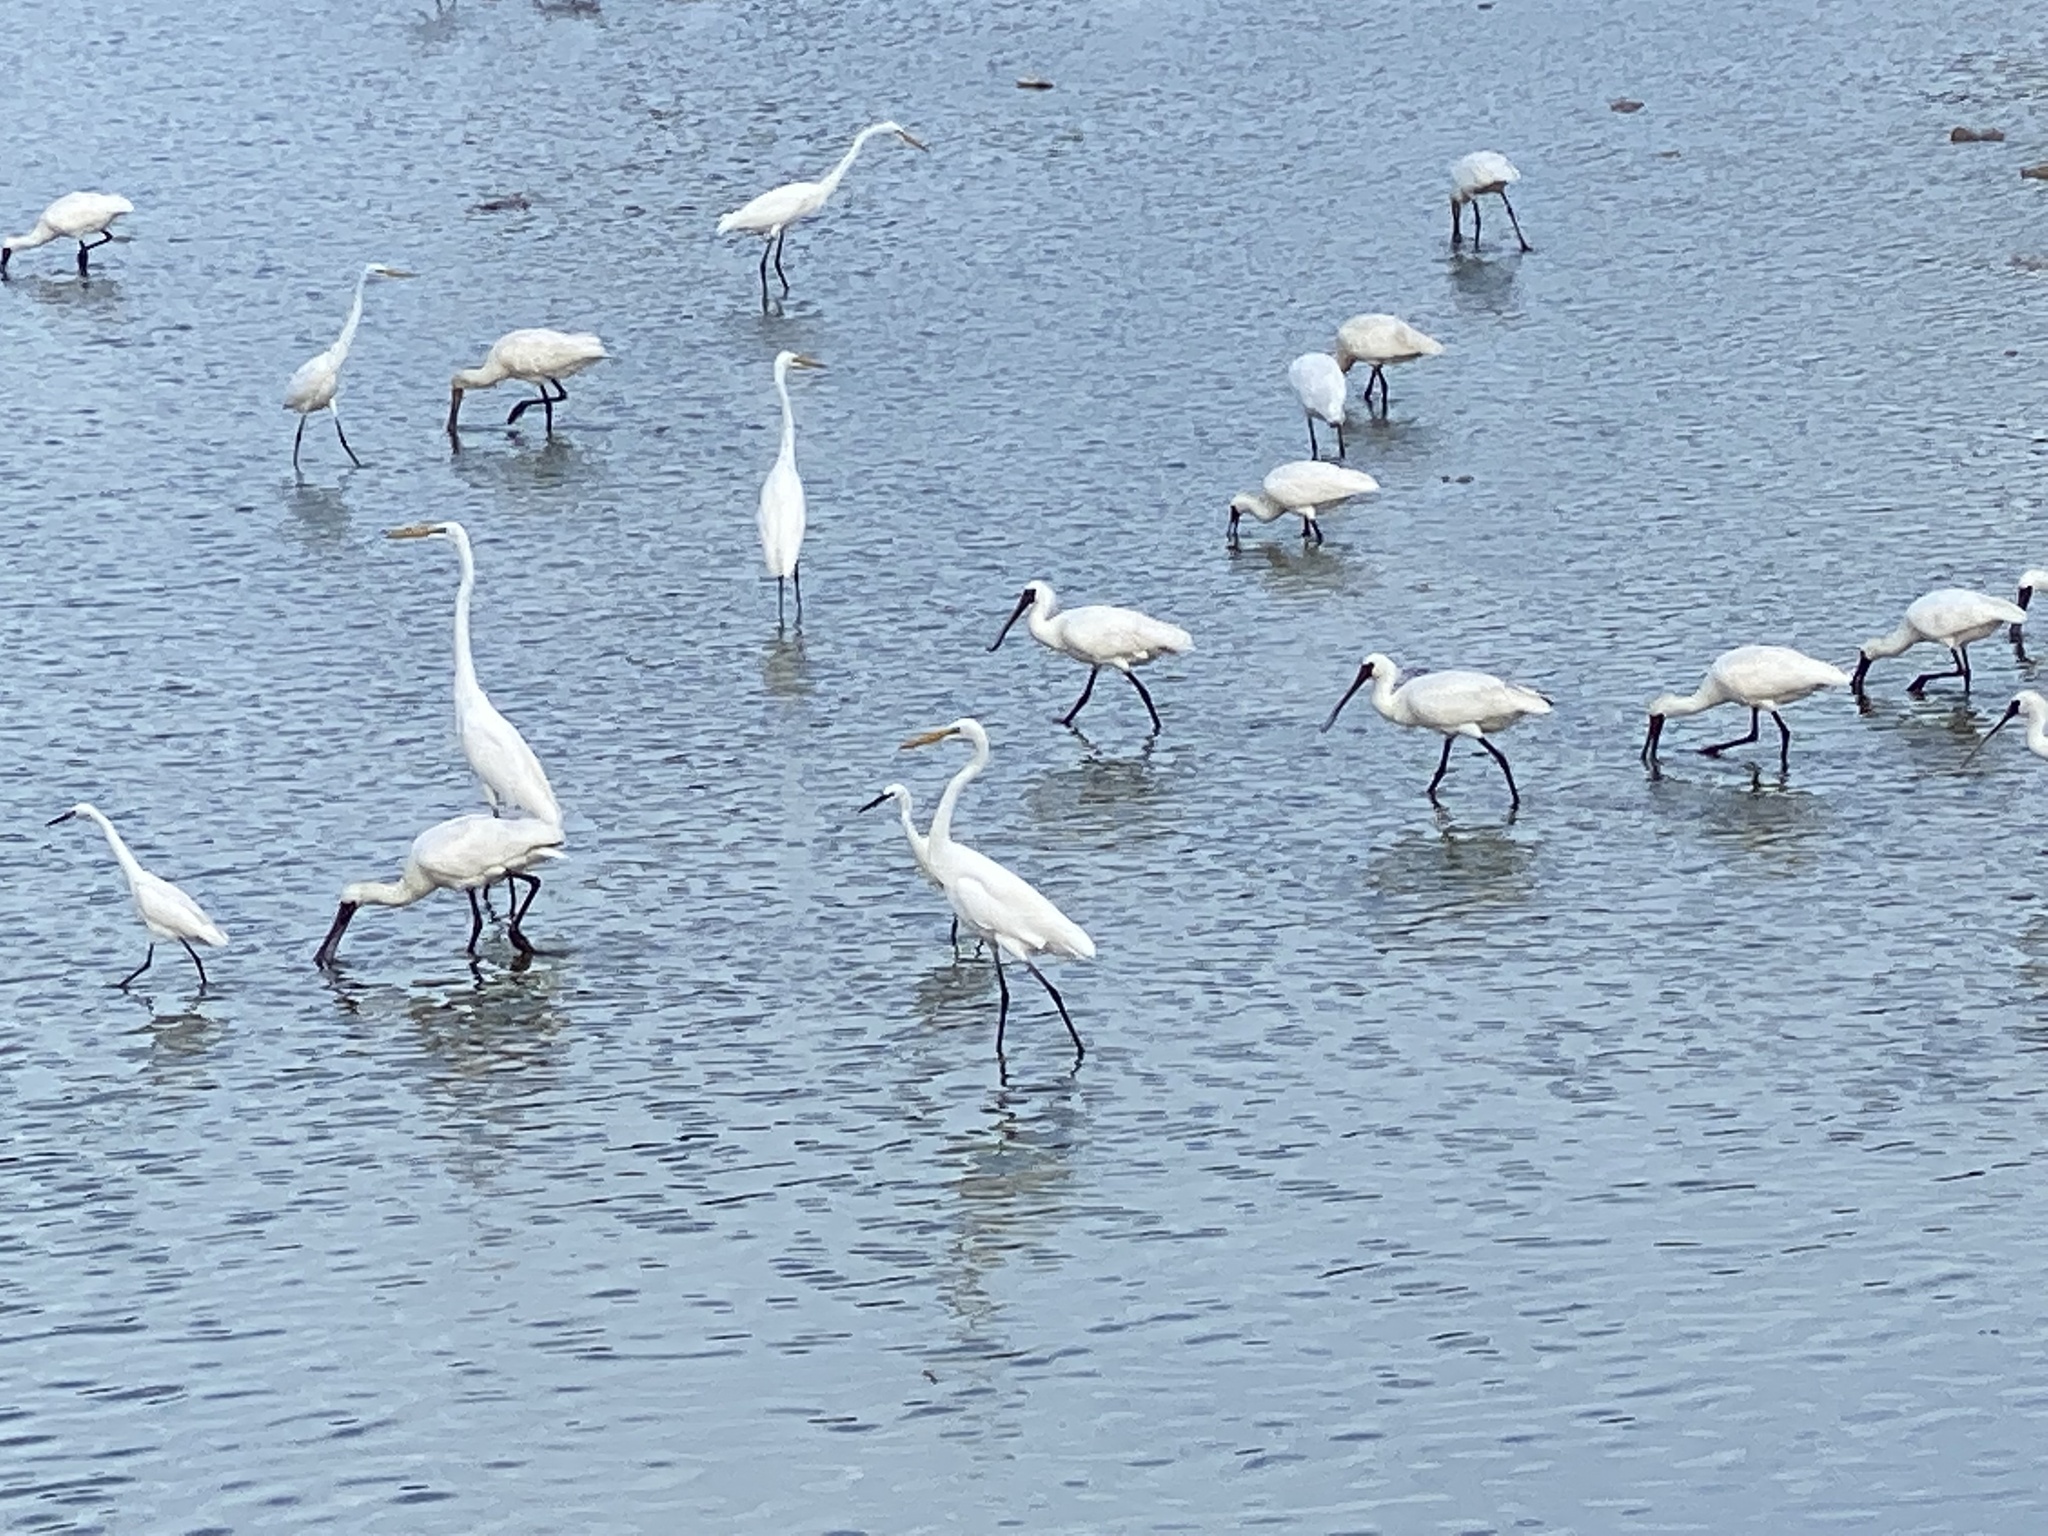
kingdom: Animalia
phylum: Chordata
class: Aves
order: Pelecaniformes
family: Threskiornithidae
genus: Platalea
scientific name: Platalea minor
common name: Black-faced spoonbill
